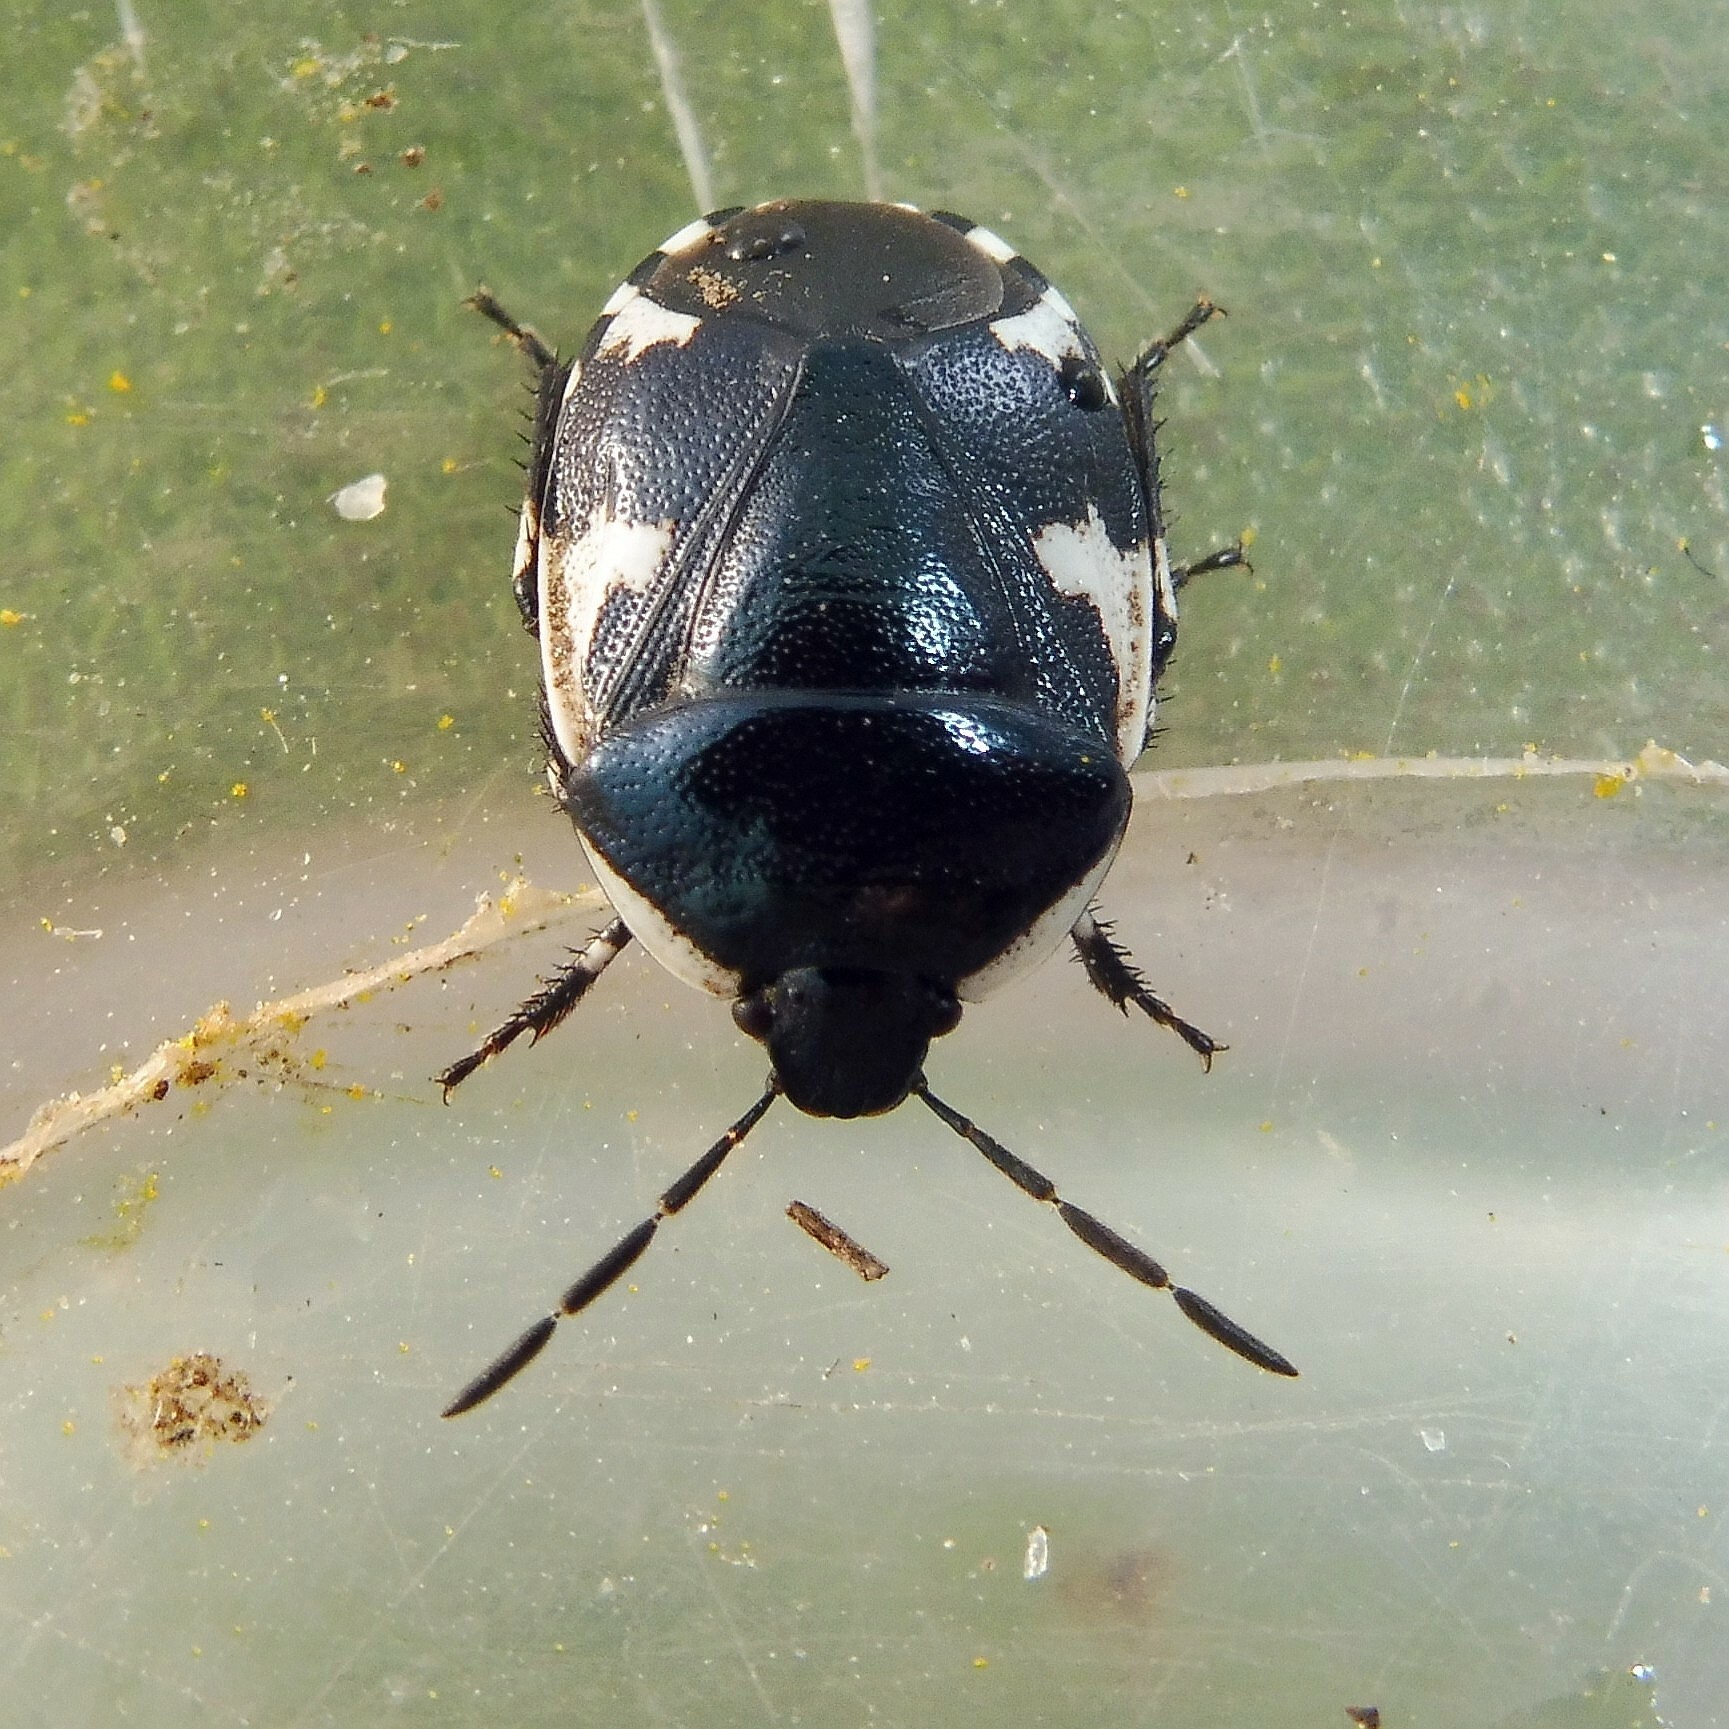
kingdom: Animalia
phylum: Arthropoda
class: Insecta
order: Hemiptera
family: Cydnidae
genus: Tritomegas
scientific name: Tritomegas sexmaculatus
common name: Rambur's pied shieldbug
